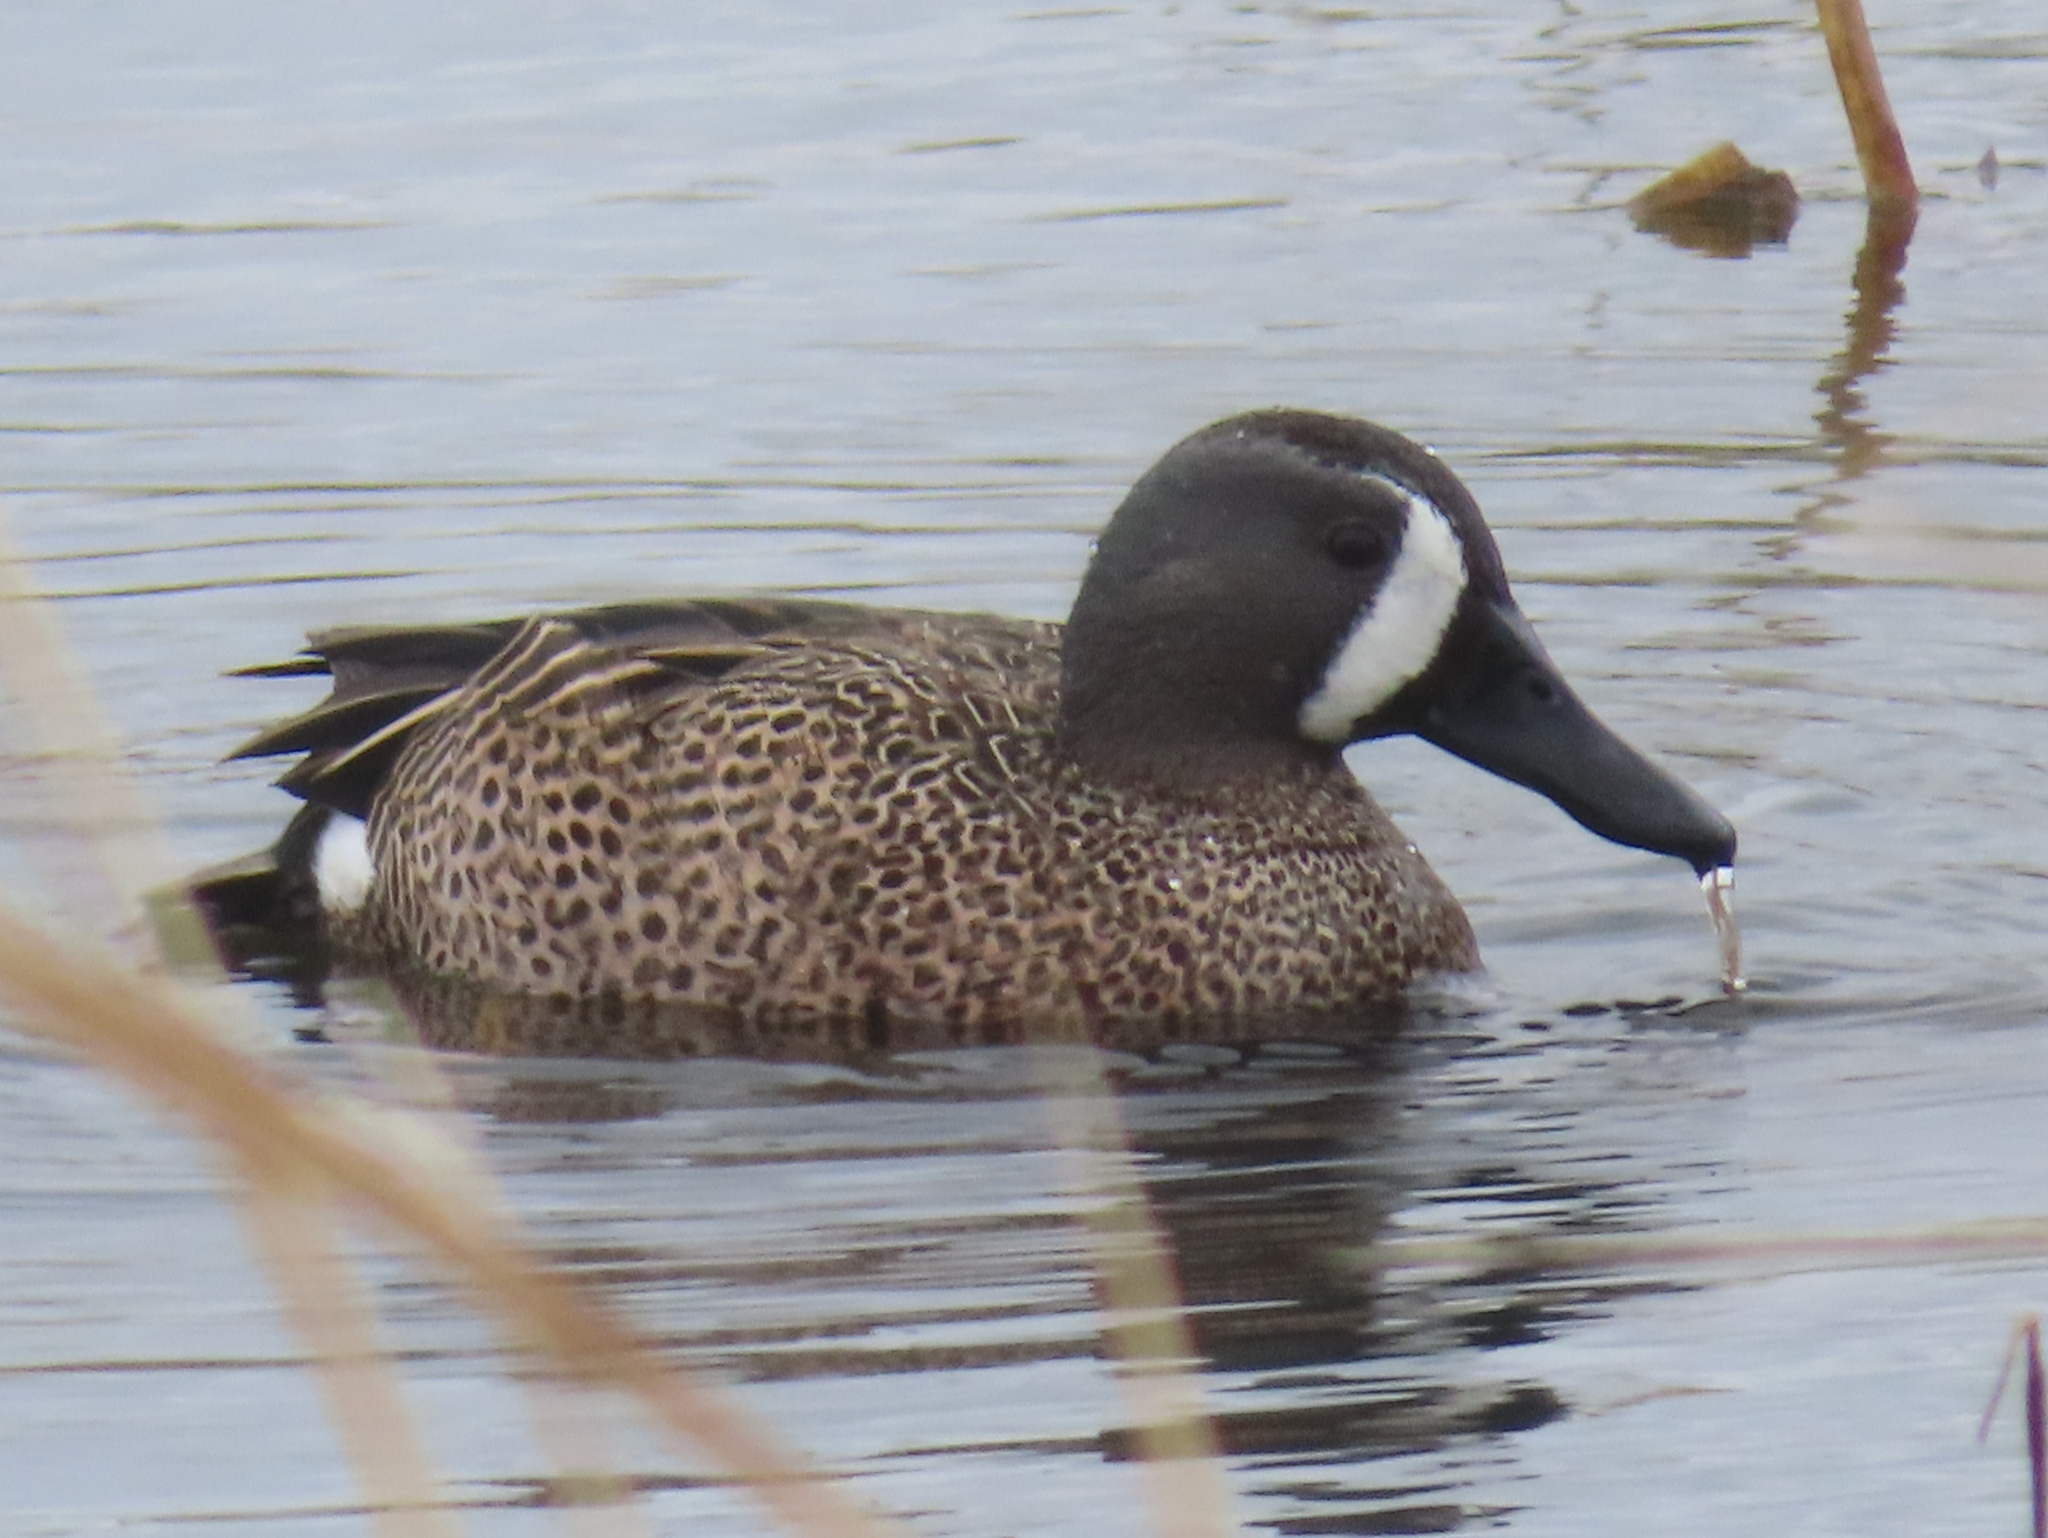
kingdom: Animalia
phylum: Chordata
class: Aves
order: Anseriformes
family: Anatidae
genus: Spatula
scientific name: Spatula discors
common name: Blue-winged teal
